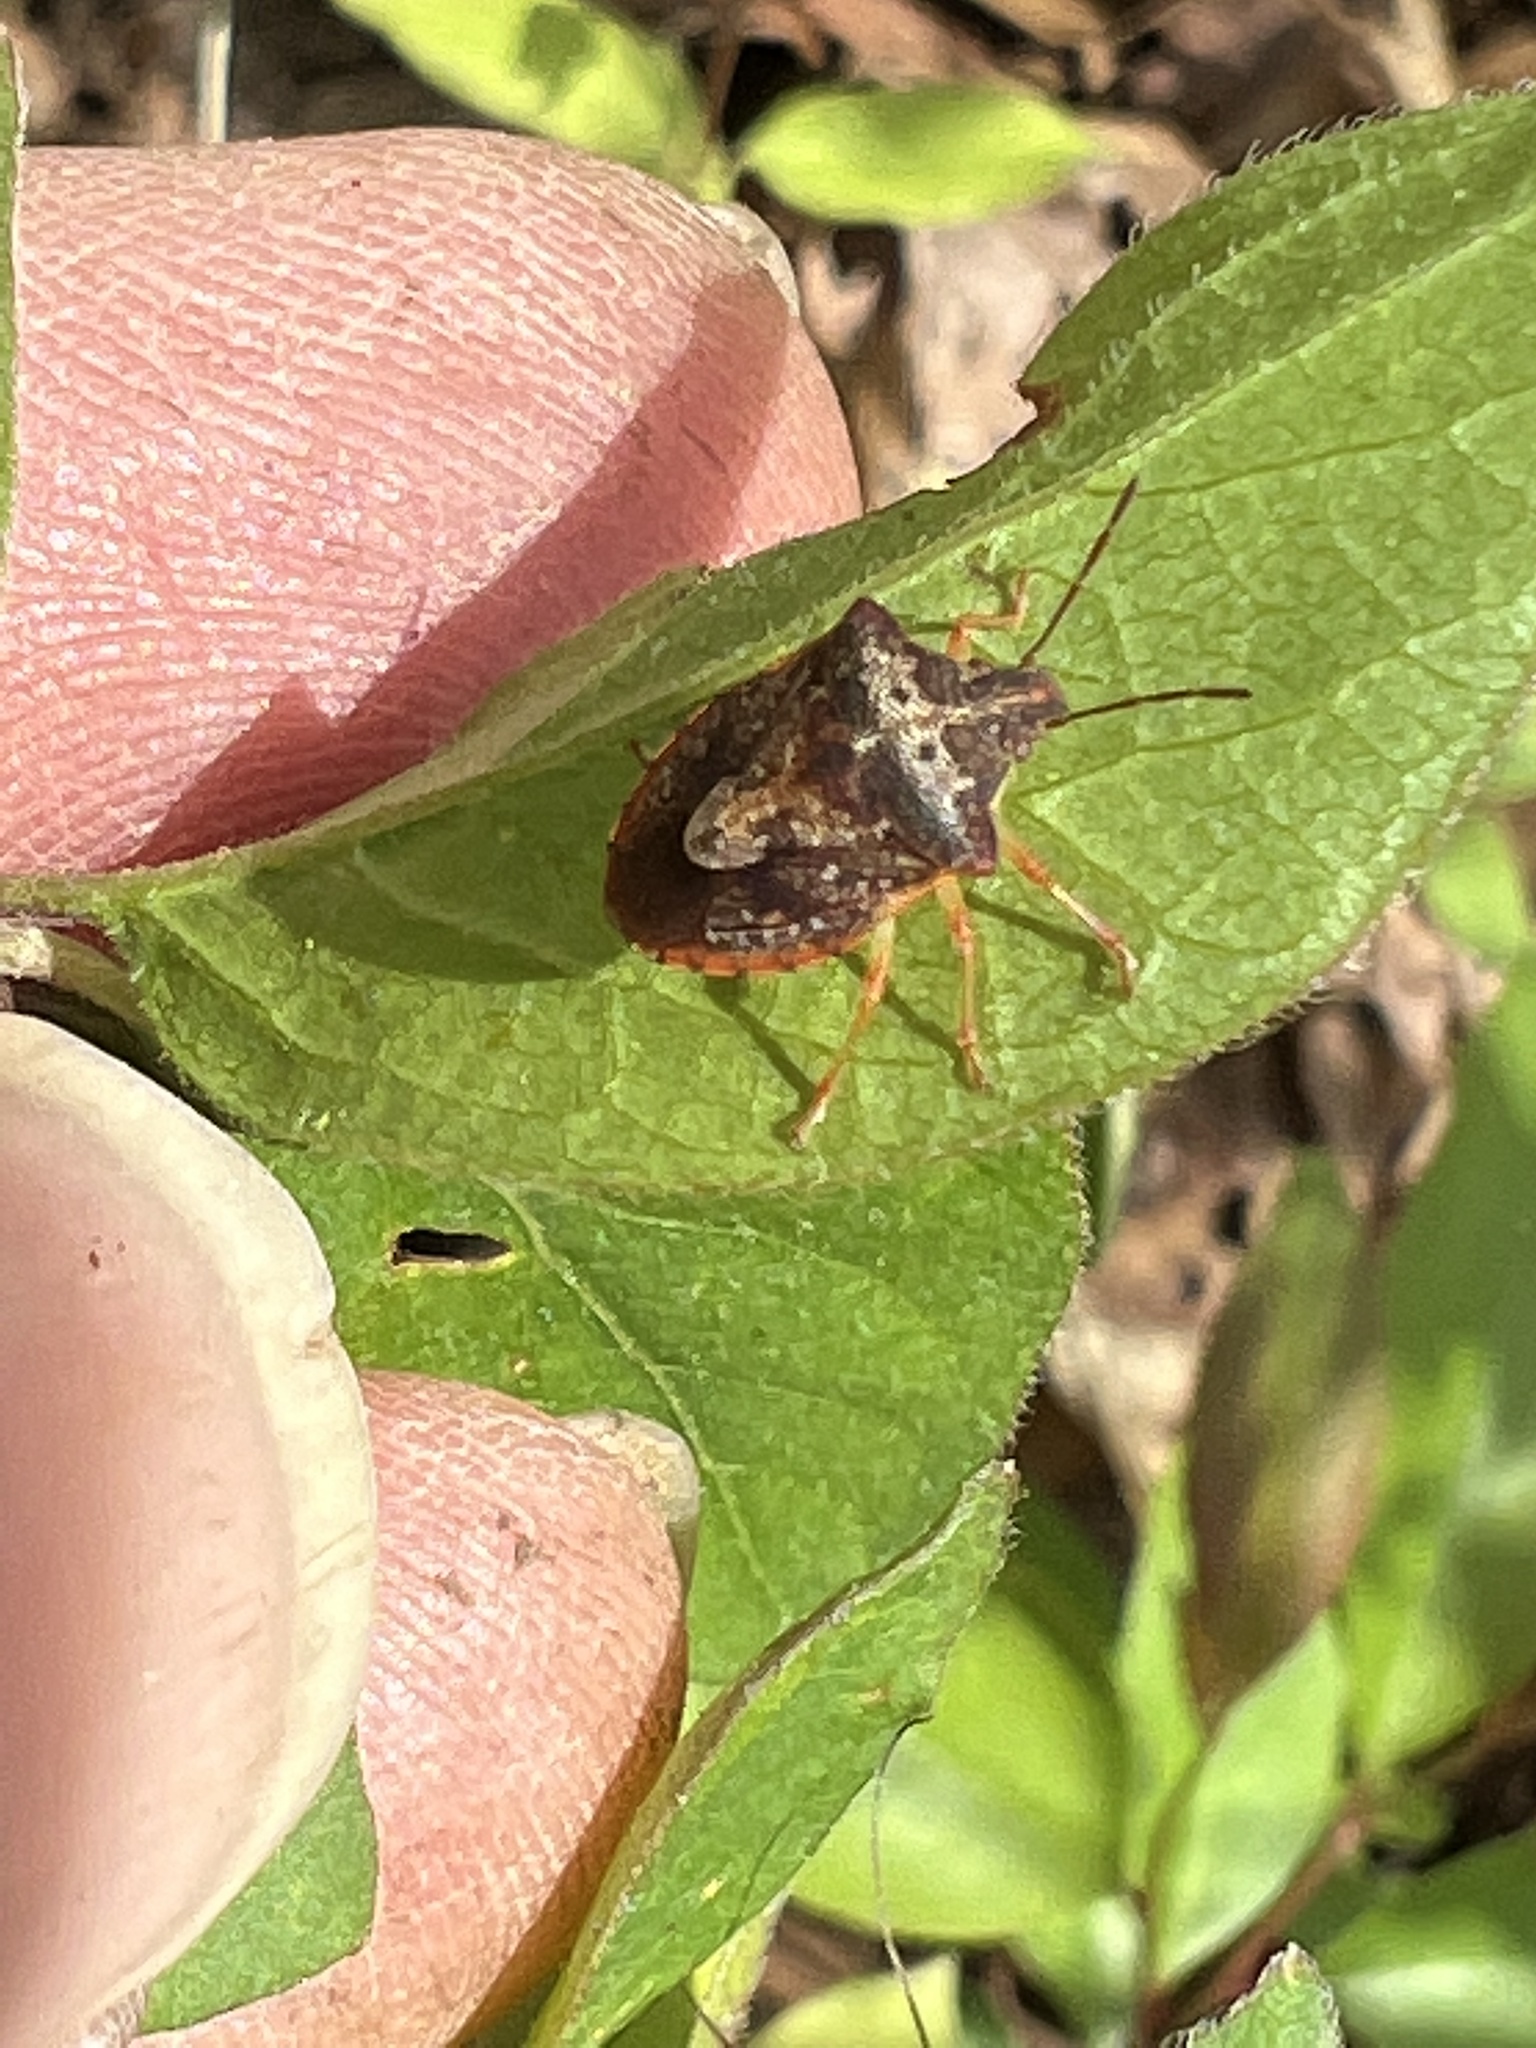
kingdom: Animalia
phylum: Arthropoda
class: Insecta
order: Hemiptera
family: Pentatomidae
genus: Dendrocoris
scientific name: Dendrocoris humeralis
